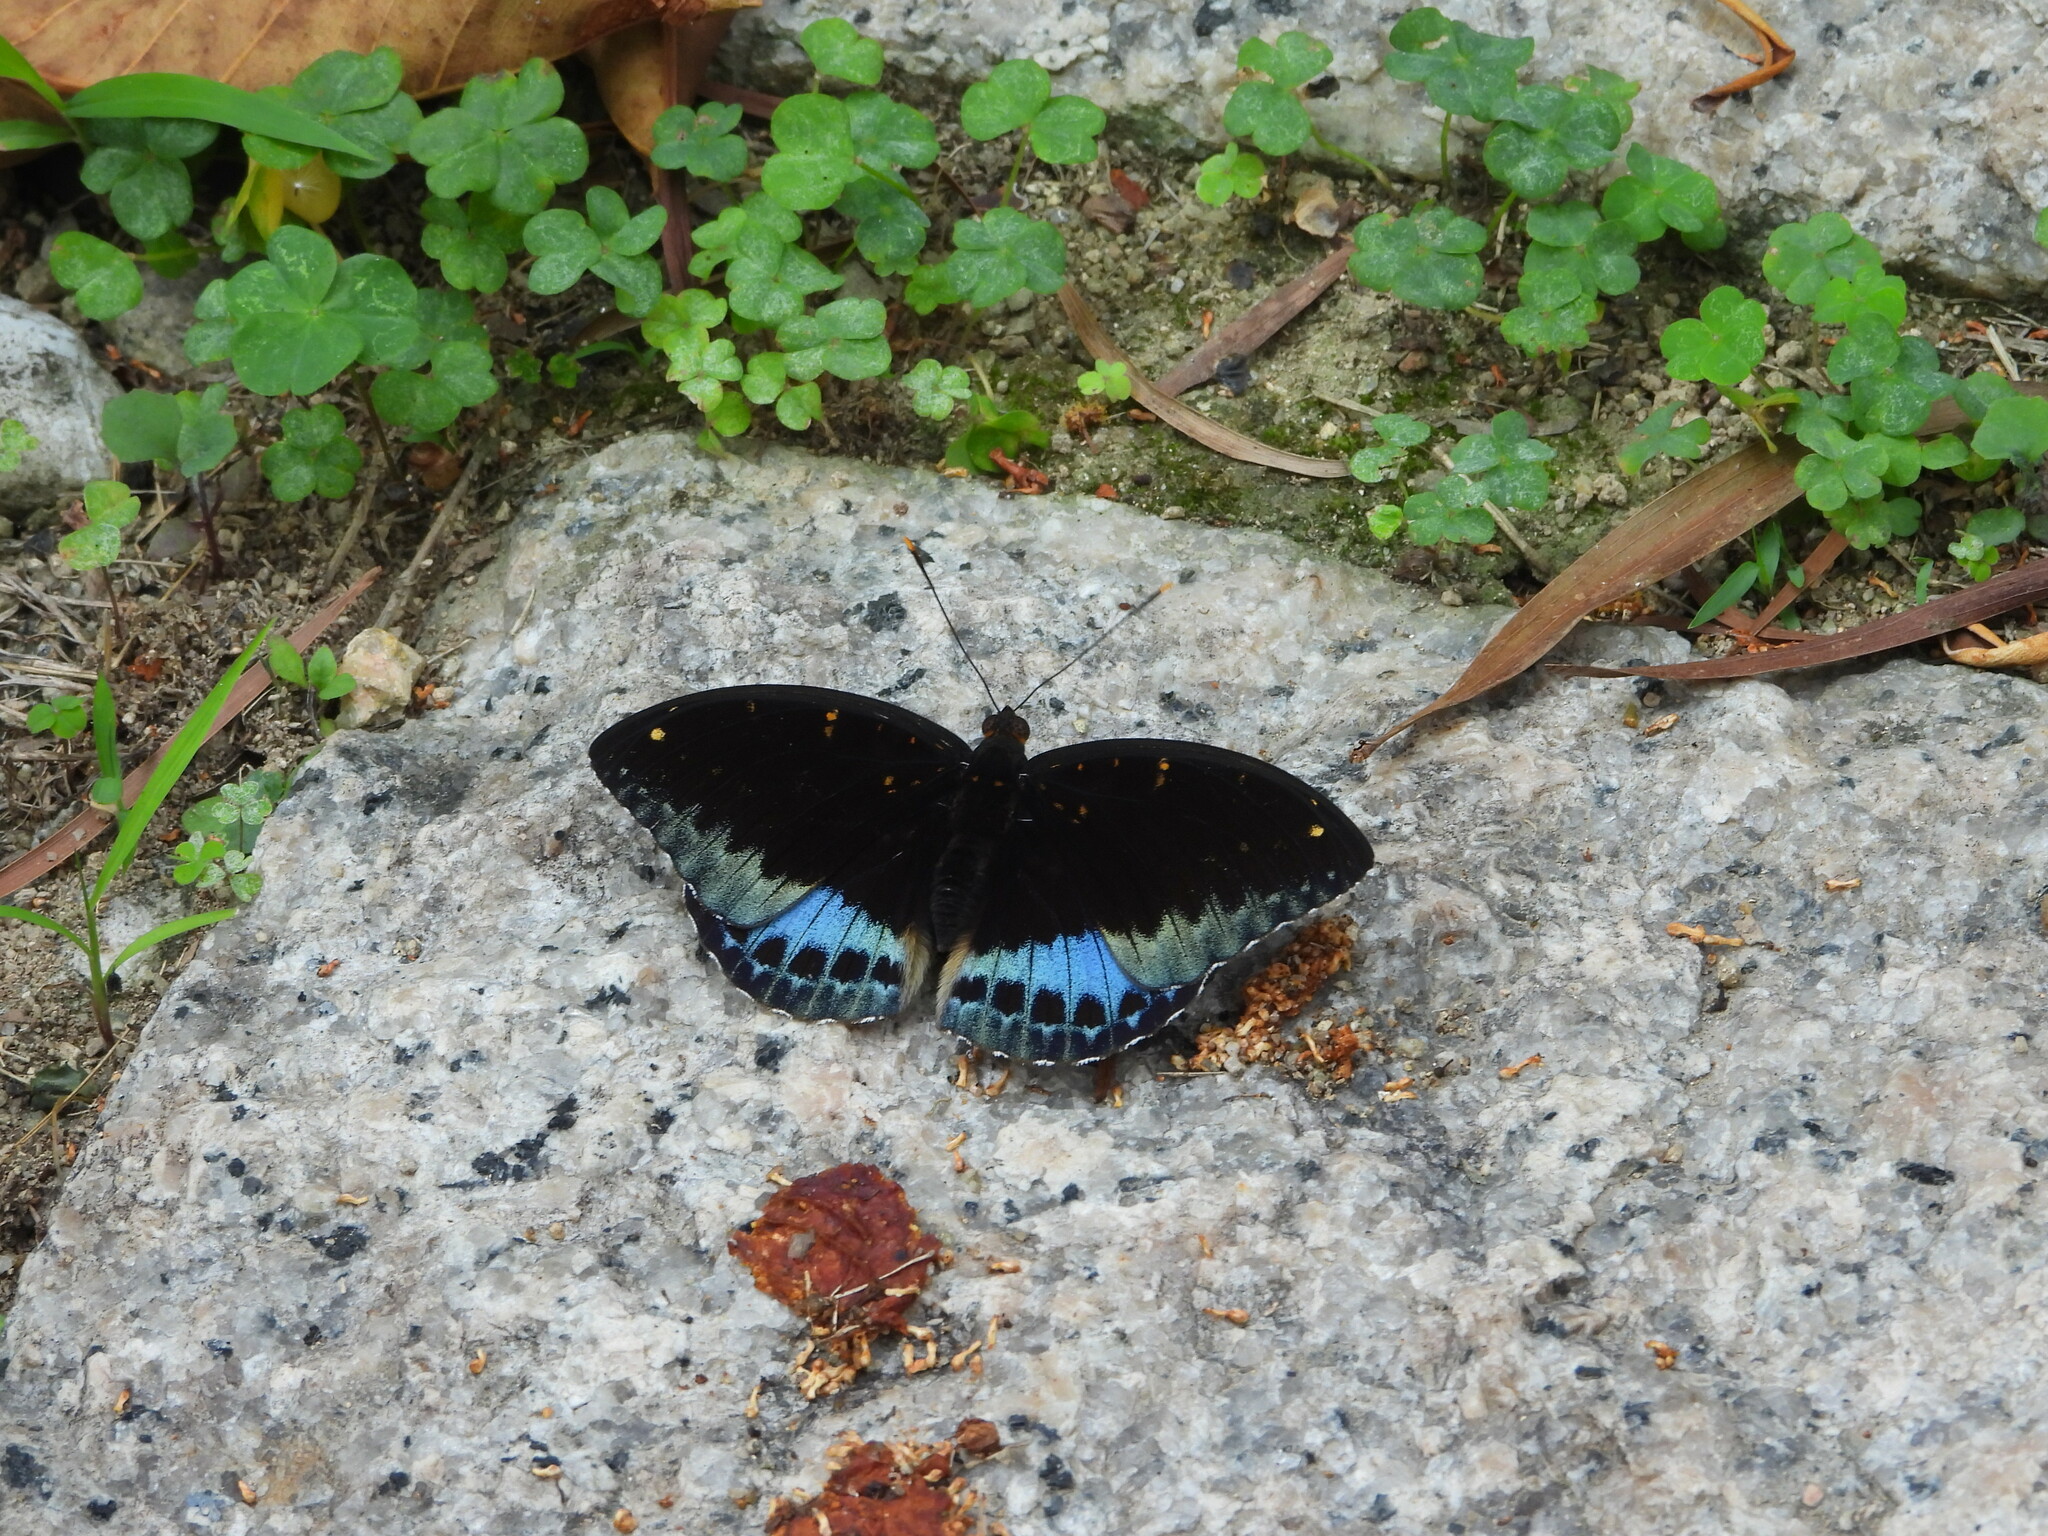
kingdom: Animalia
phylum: Arthropoda
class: Insecta
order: Lepidoptera
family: Nymphalidae
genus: Lexias
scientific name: Lexias pardalis
